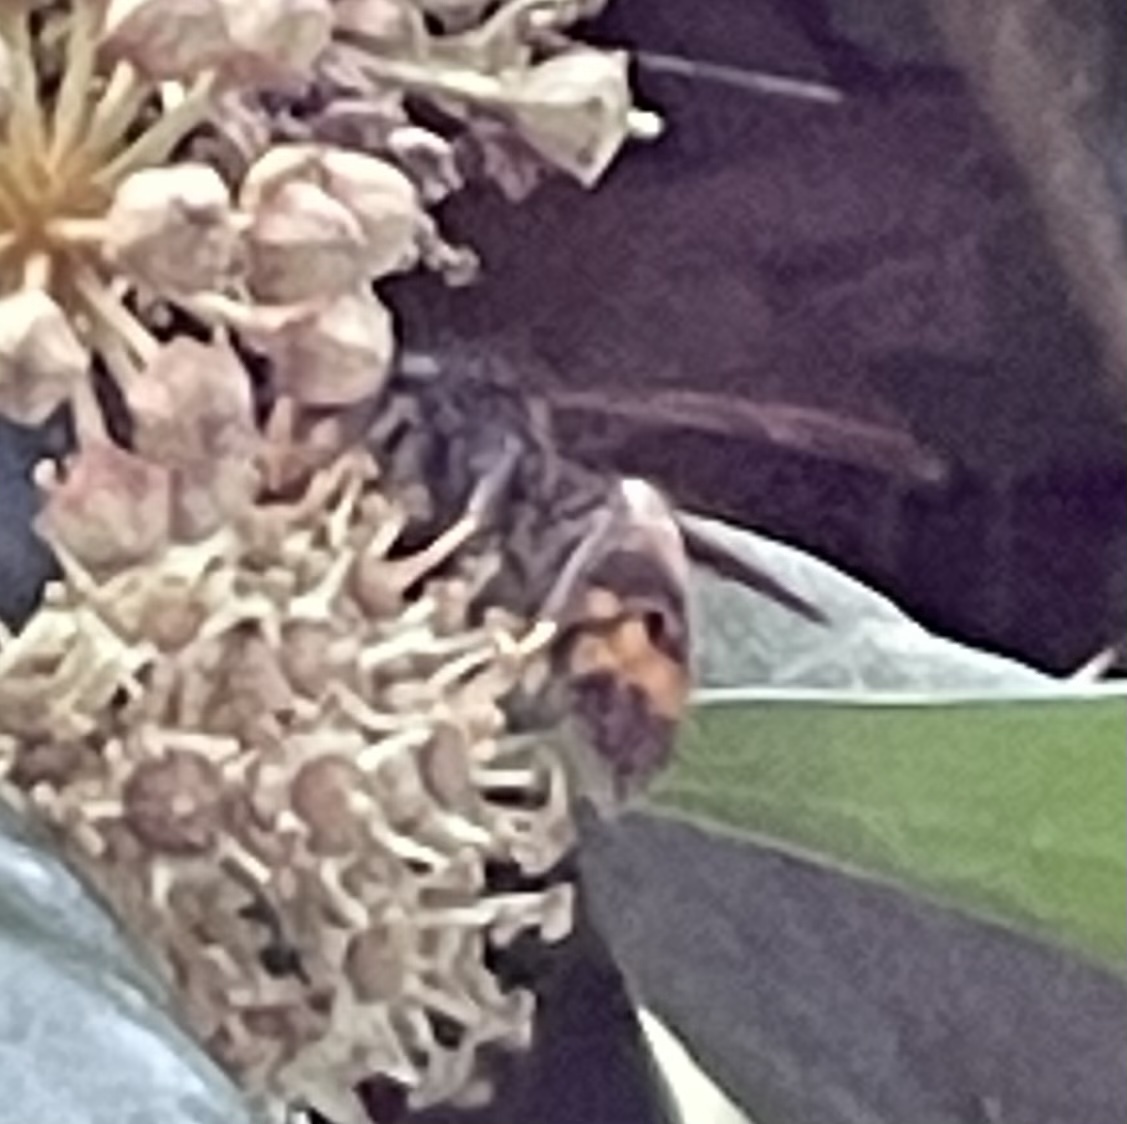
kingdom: Animalia
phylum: Arthropoda
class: Insecta
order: Hymenoptera
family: Vespidae
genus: Vespa
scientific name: Vespa velutina
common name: Asian hornet
